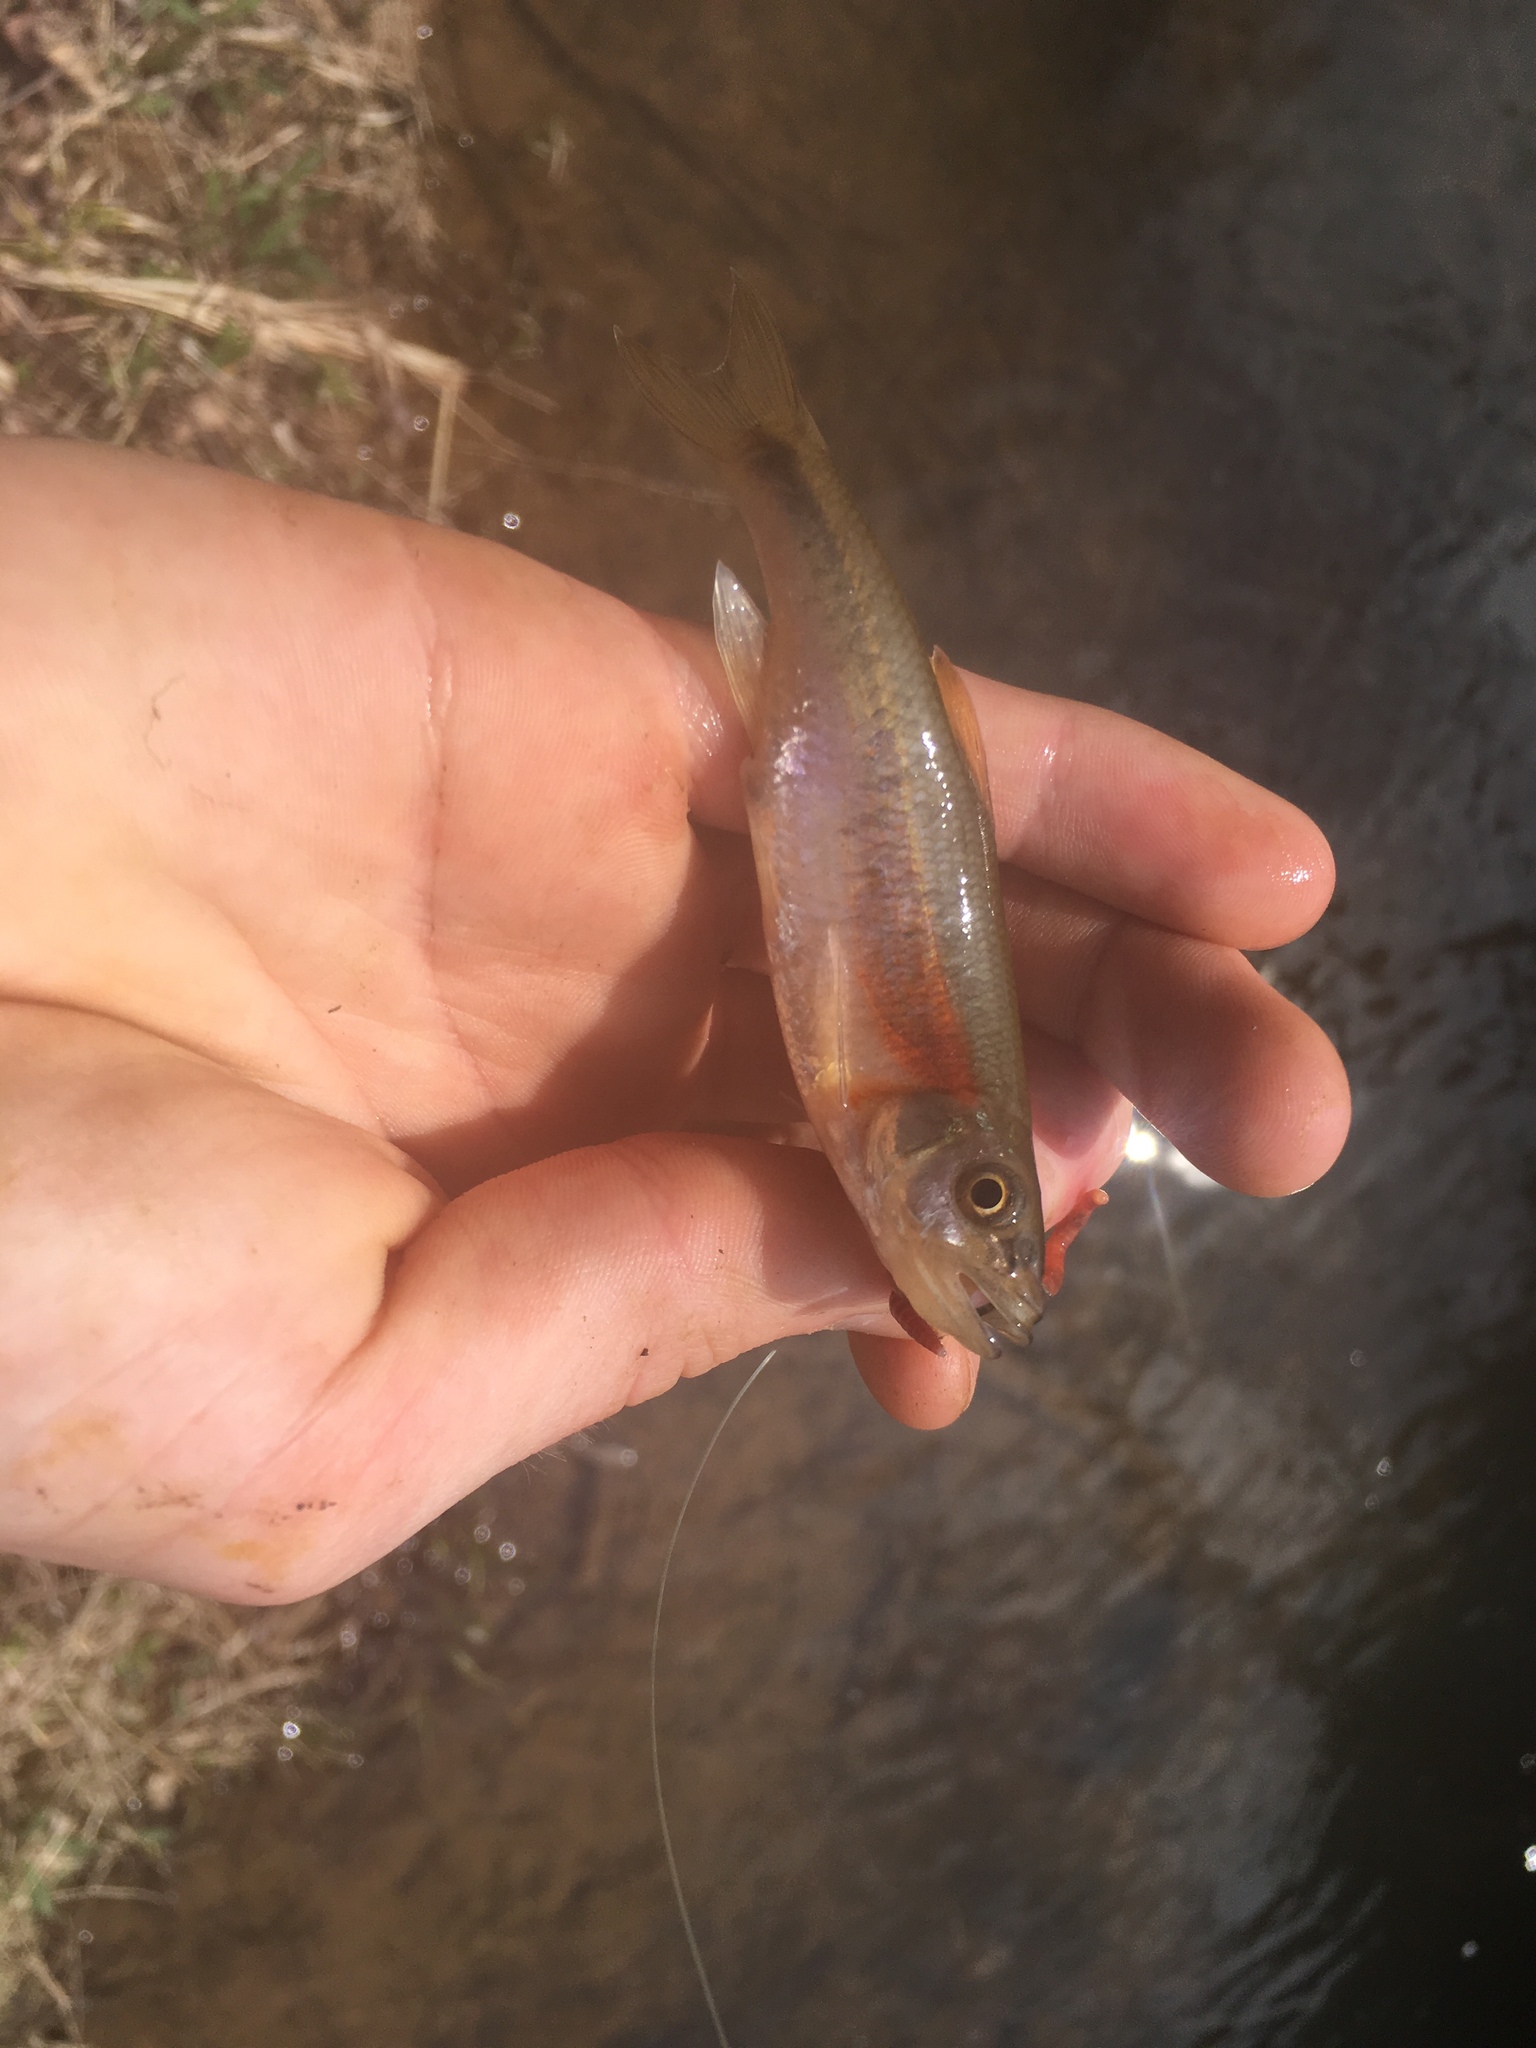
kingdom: Animalia
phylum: Chordata
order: Cypriniformes
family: Cyprinidae
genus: Clinostomus
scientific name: Clinostomus funduloides
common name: Rosyside dace
